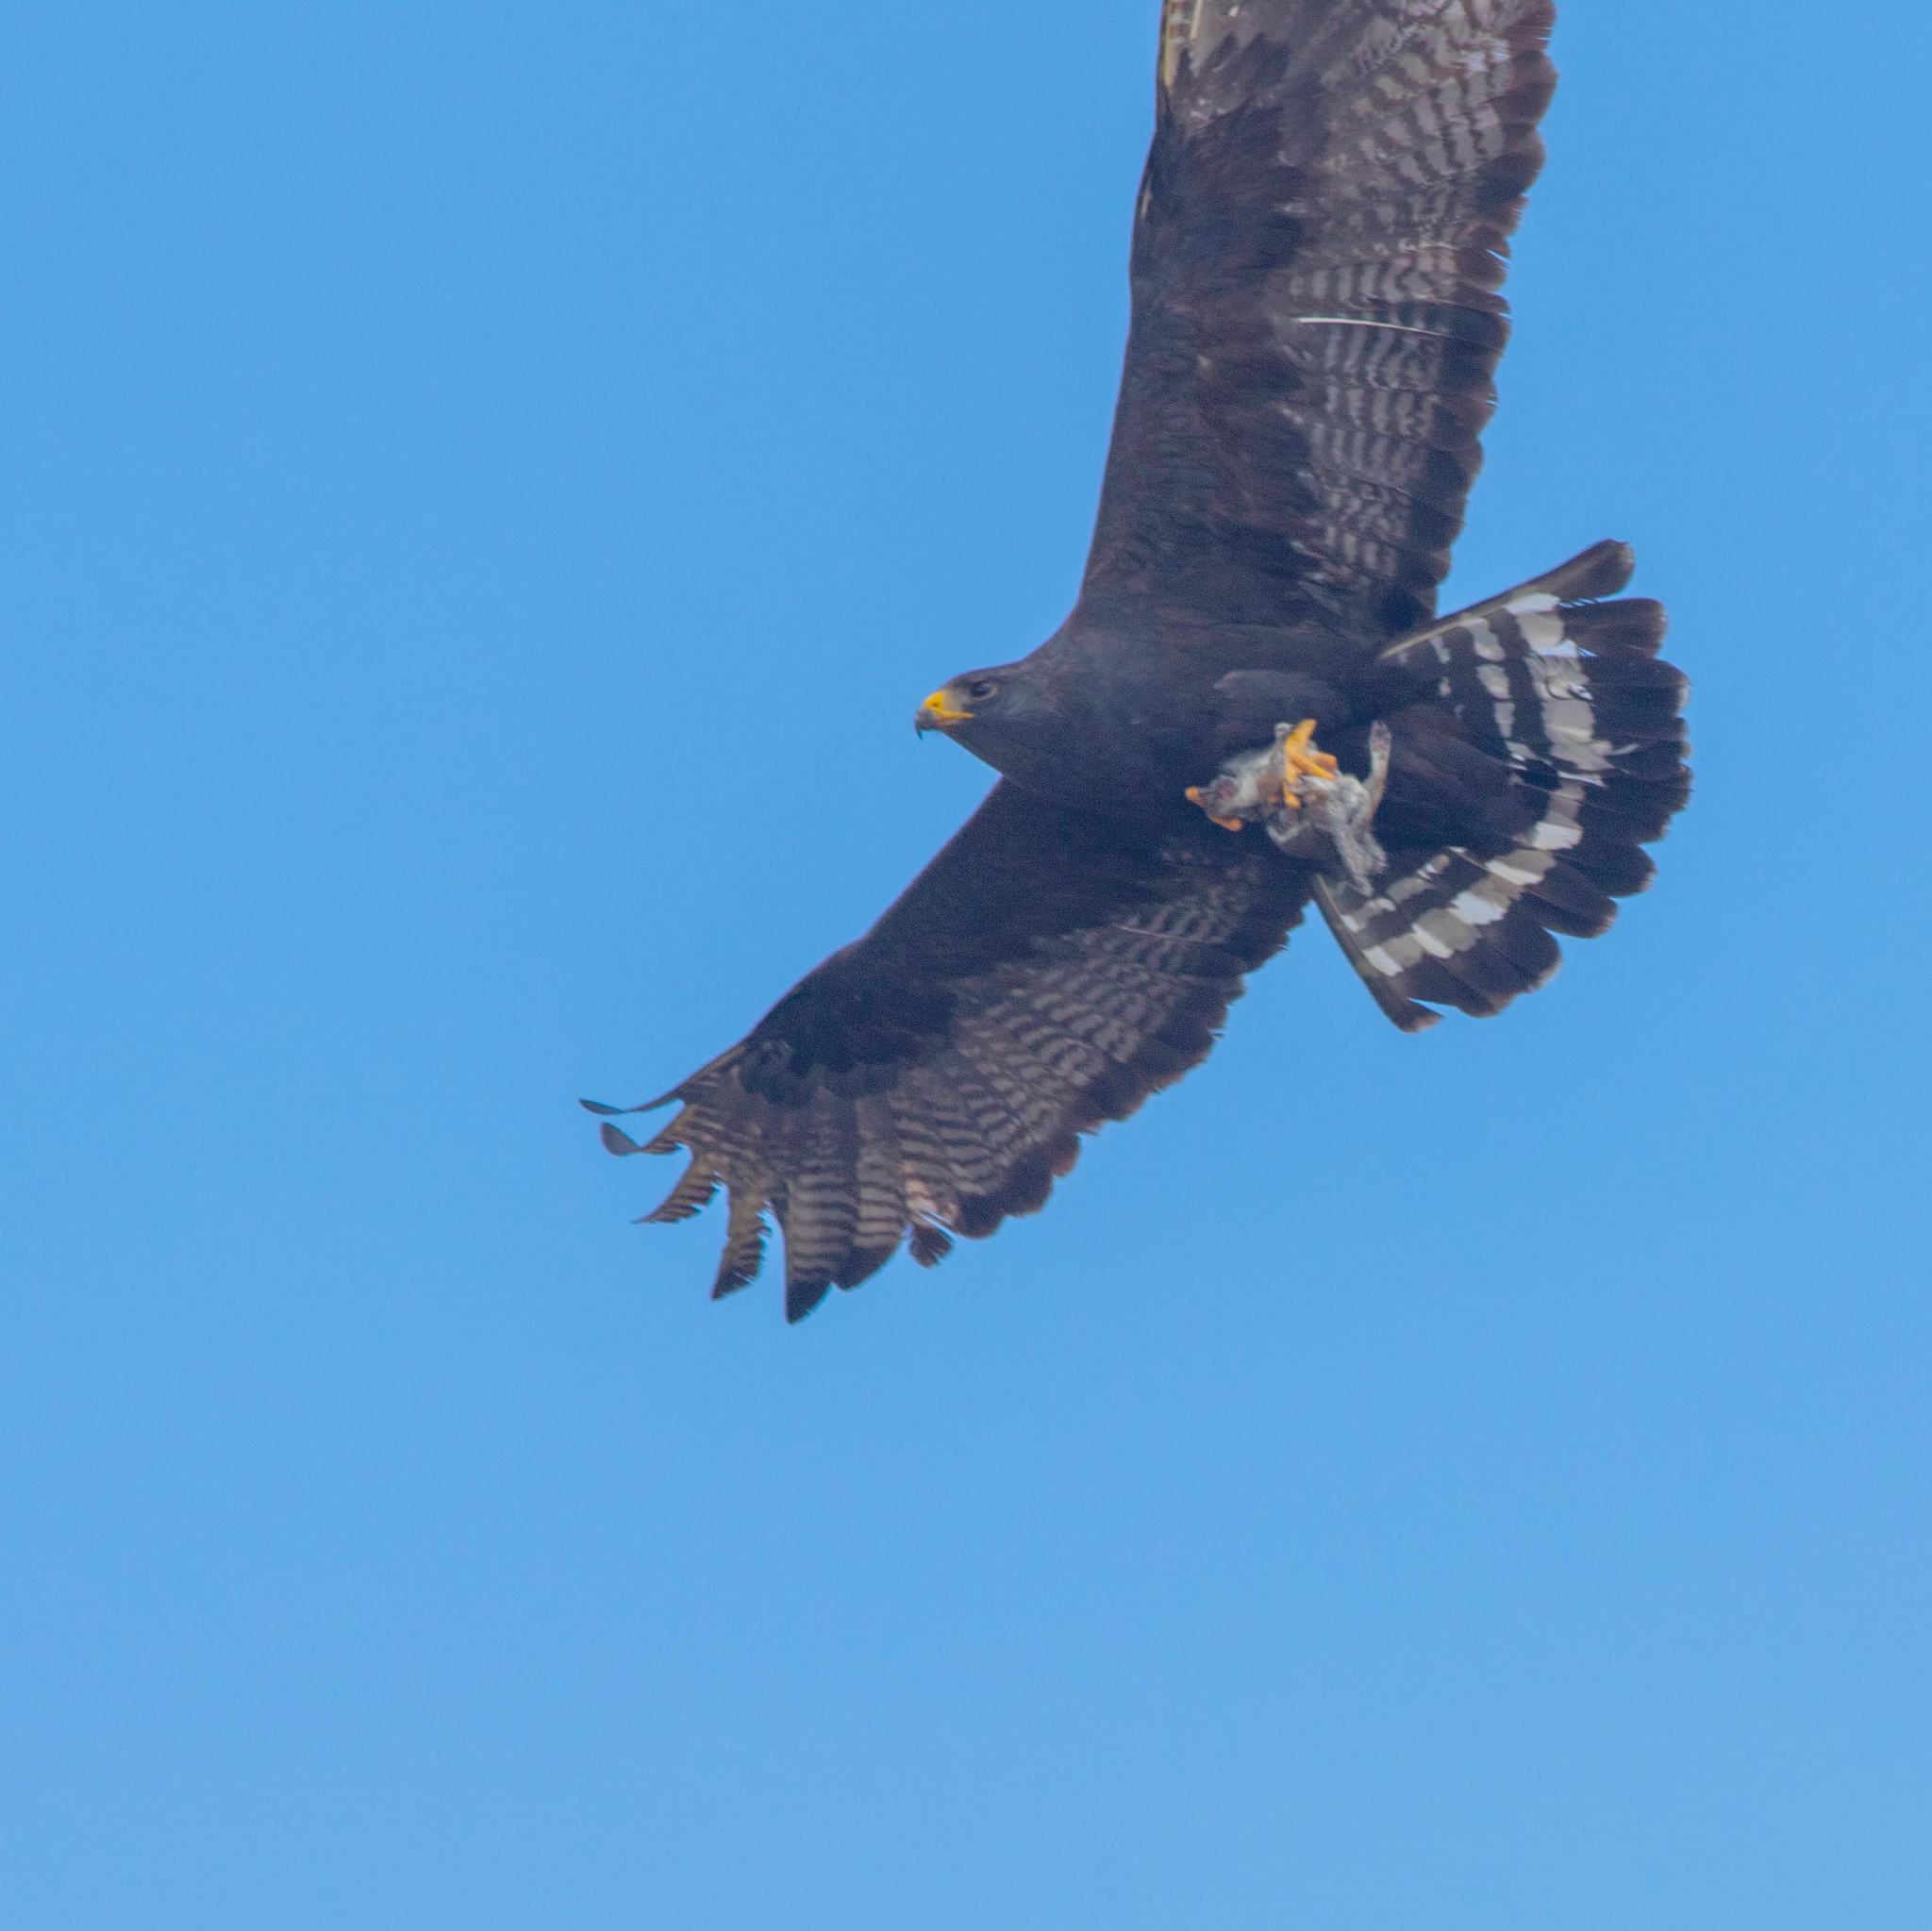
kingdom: Animalia
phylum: Chordata
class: Aves
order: Accipitriformes
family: Accipitridae
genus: Buteo
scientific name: Buteo albonotatus
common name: Zone-tailed hawk
